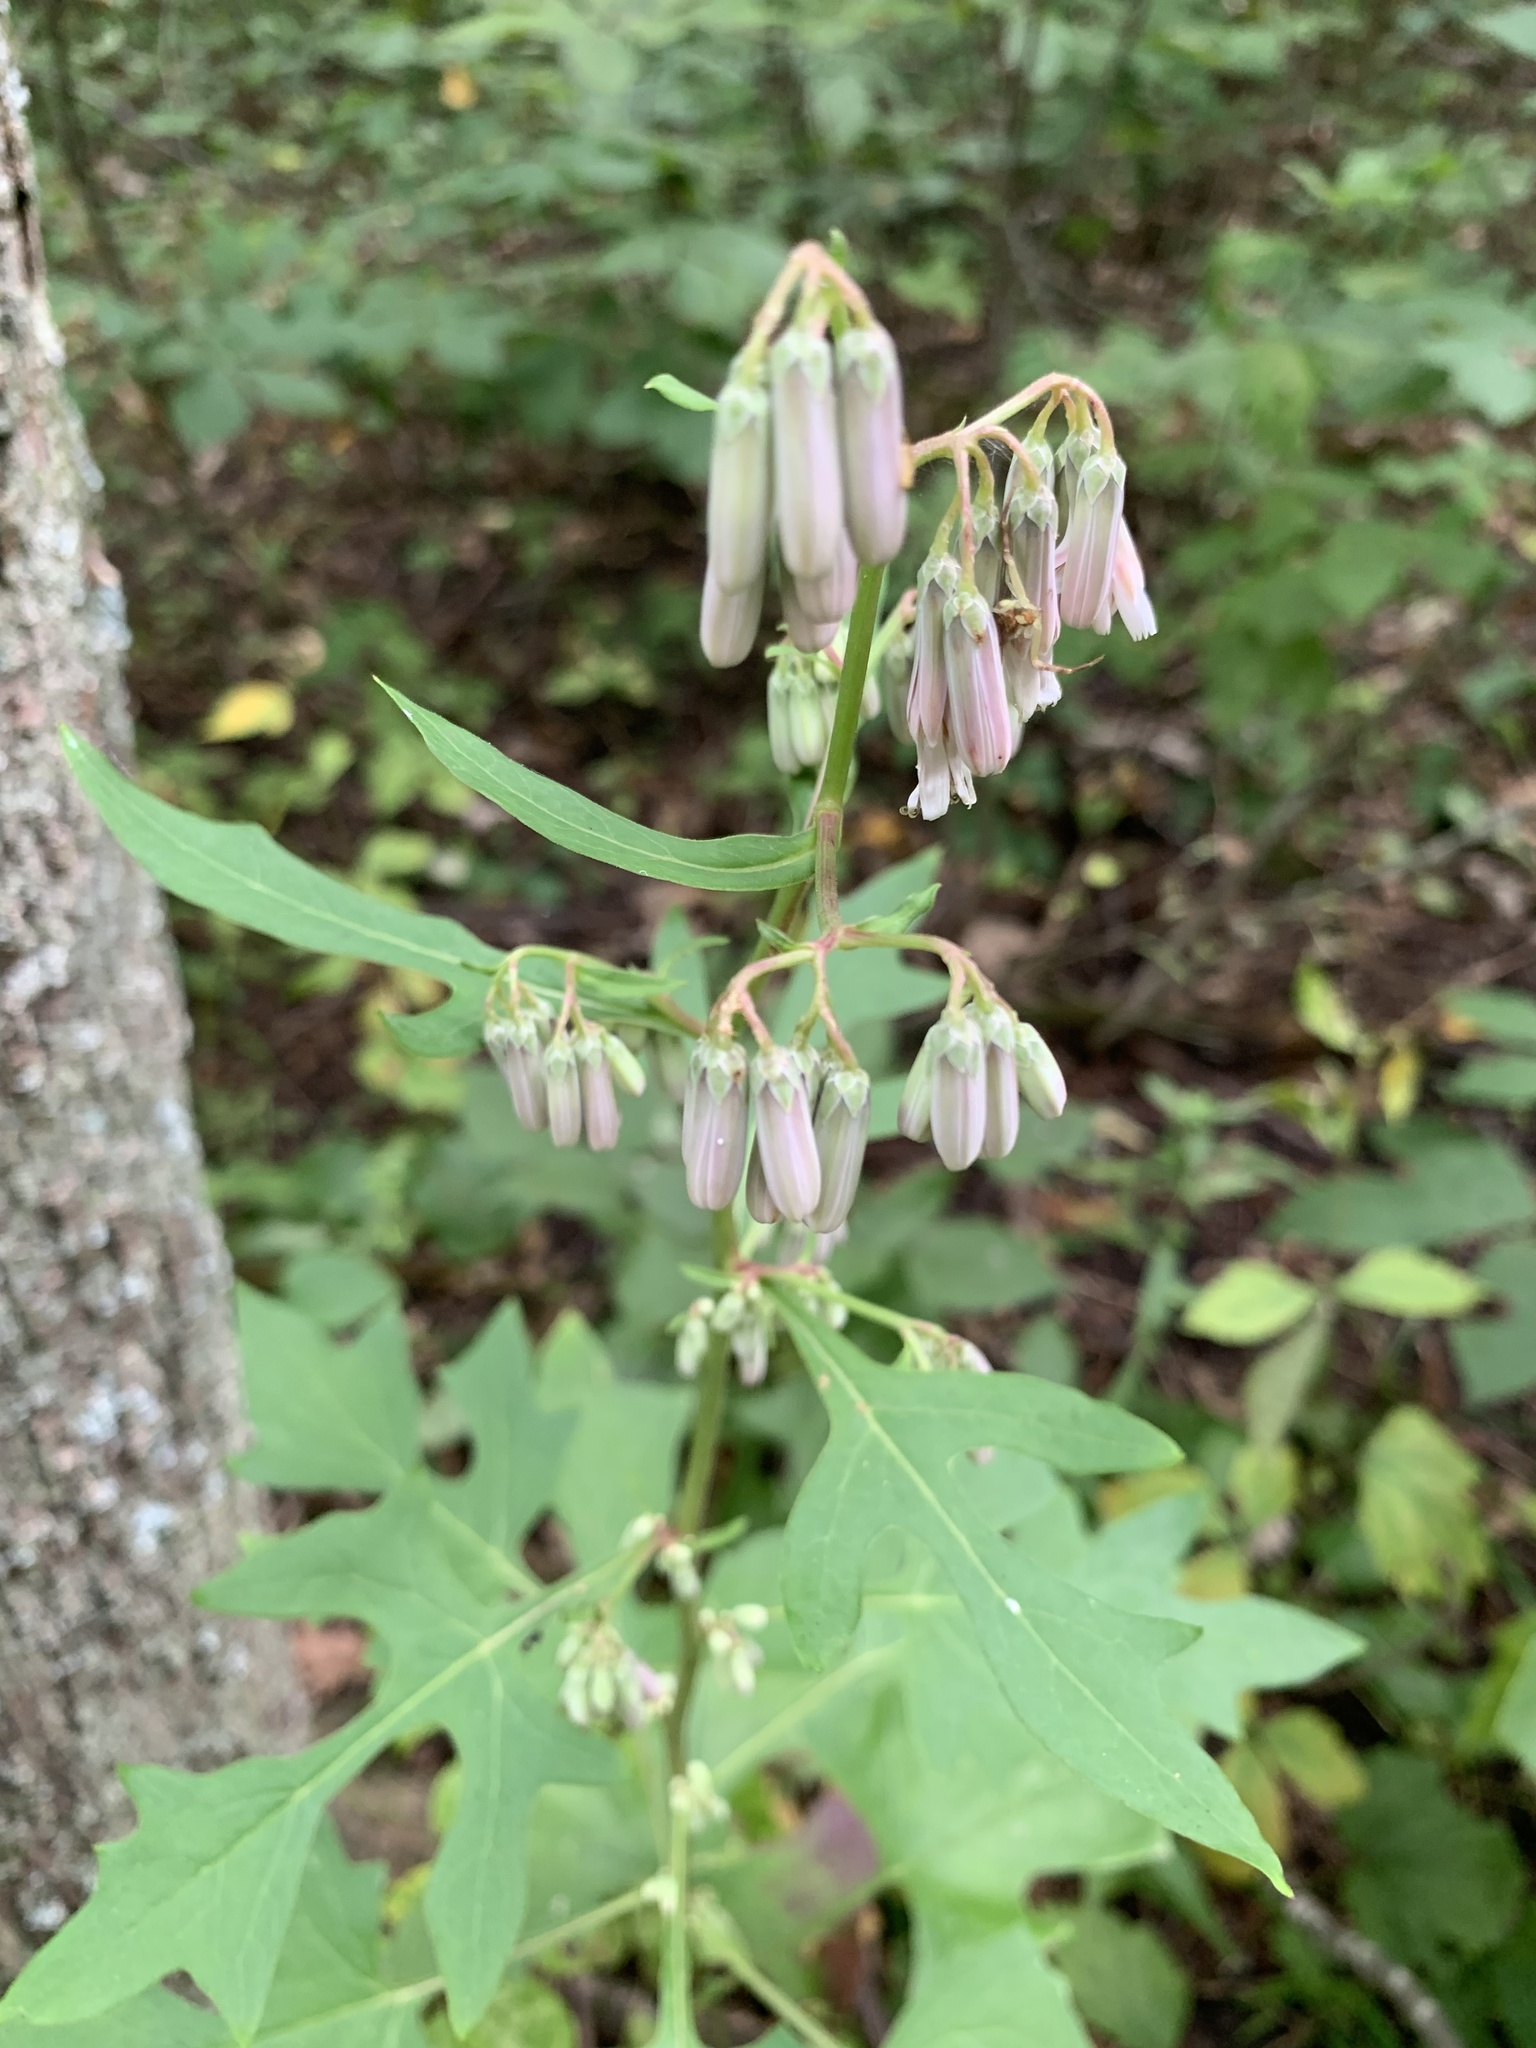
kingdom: Plantae
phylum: Tracheophyta
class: Magnoliopsida
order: Asterales
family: Asteraceae
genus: Nabalus
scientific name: Nabalus albus
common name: White rattlesnakeroot
